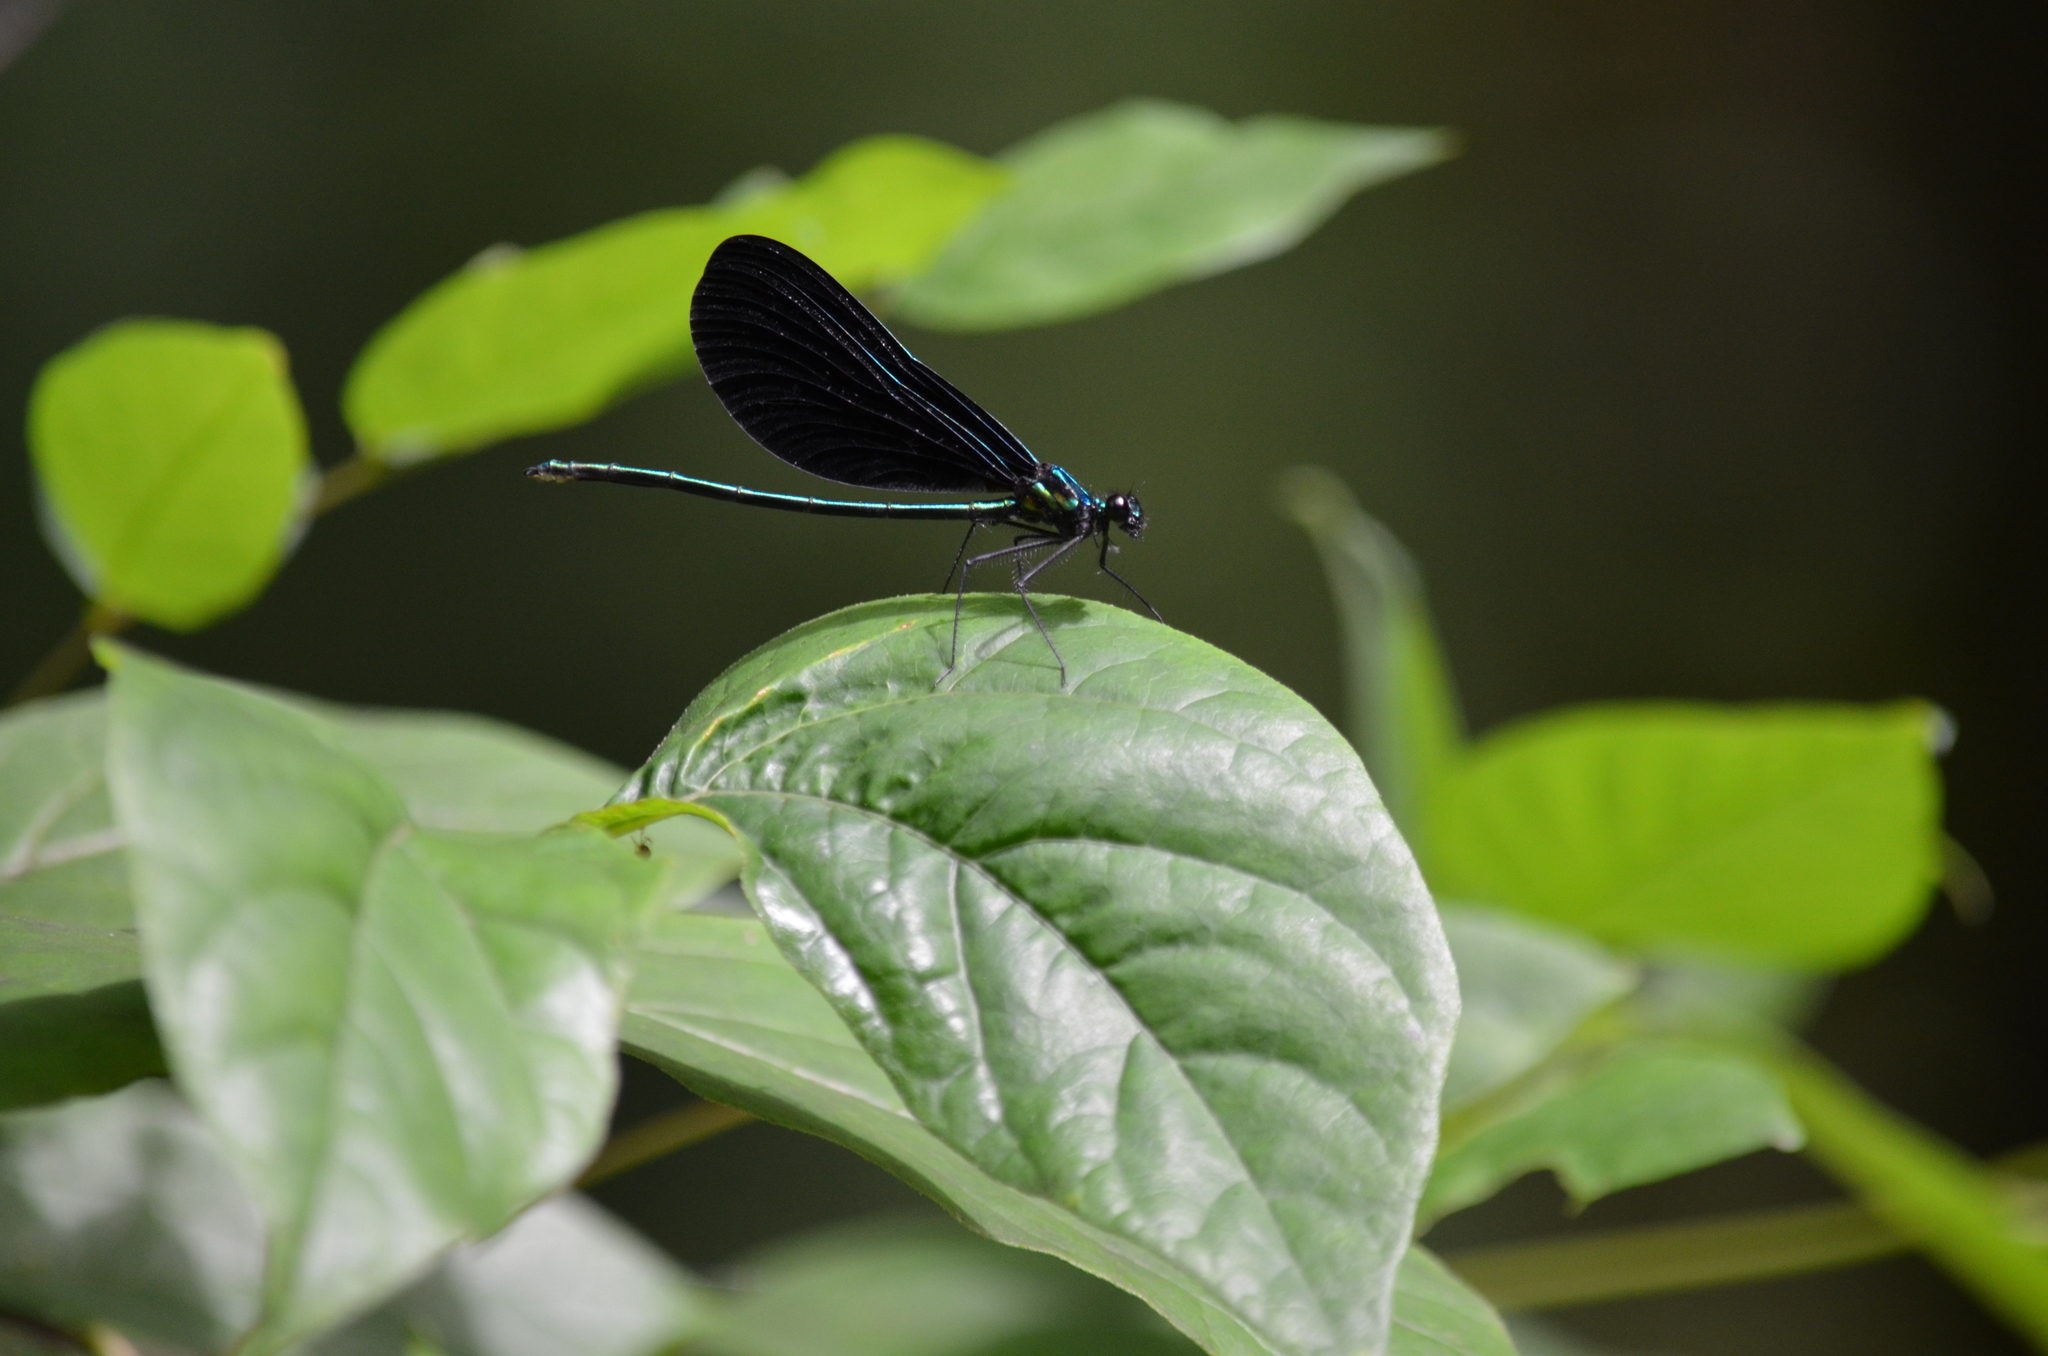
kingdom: Animalia
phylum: Arthropoda
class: Insecta
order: Odonata
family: Calopterygidae
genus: Calopteryx
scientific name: Calopteryx maculata
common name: Ebony jewelwing
